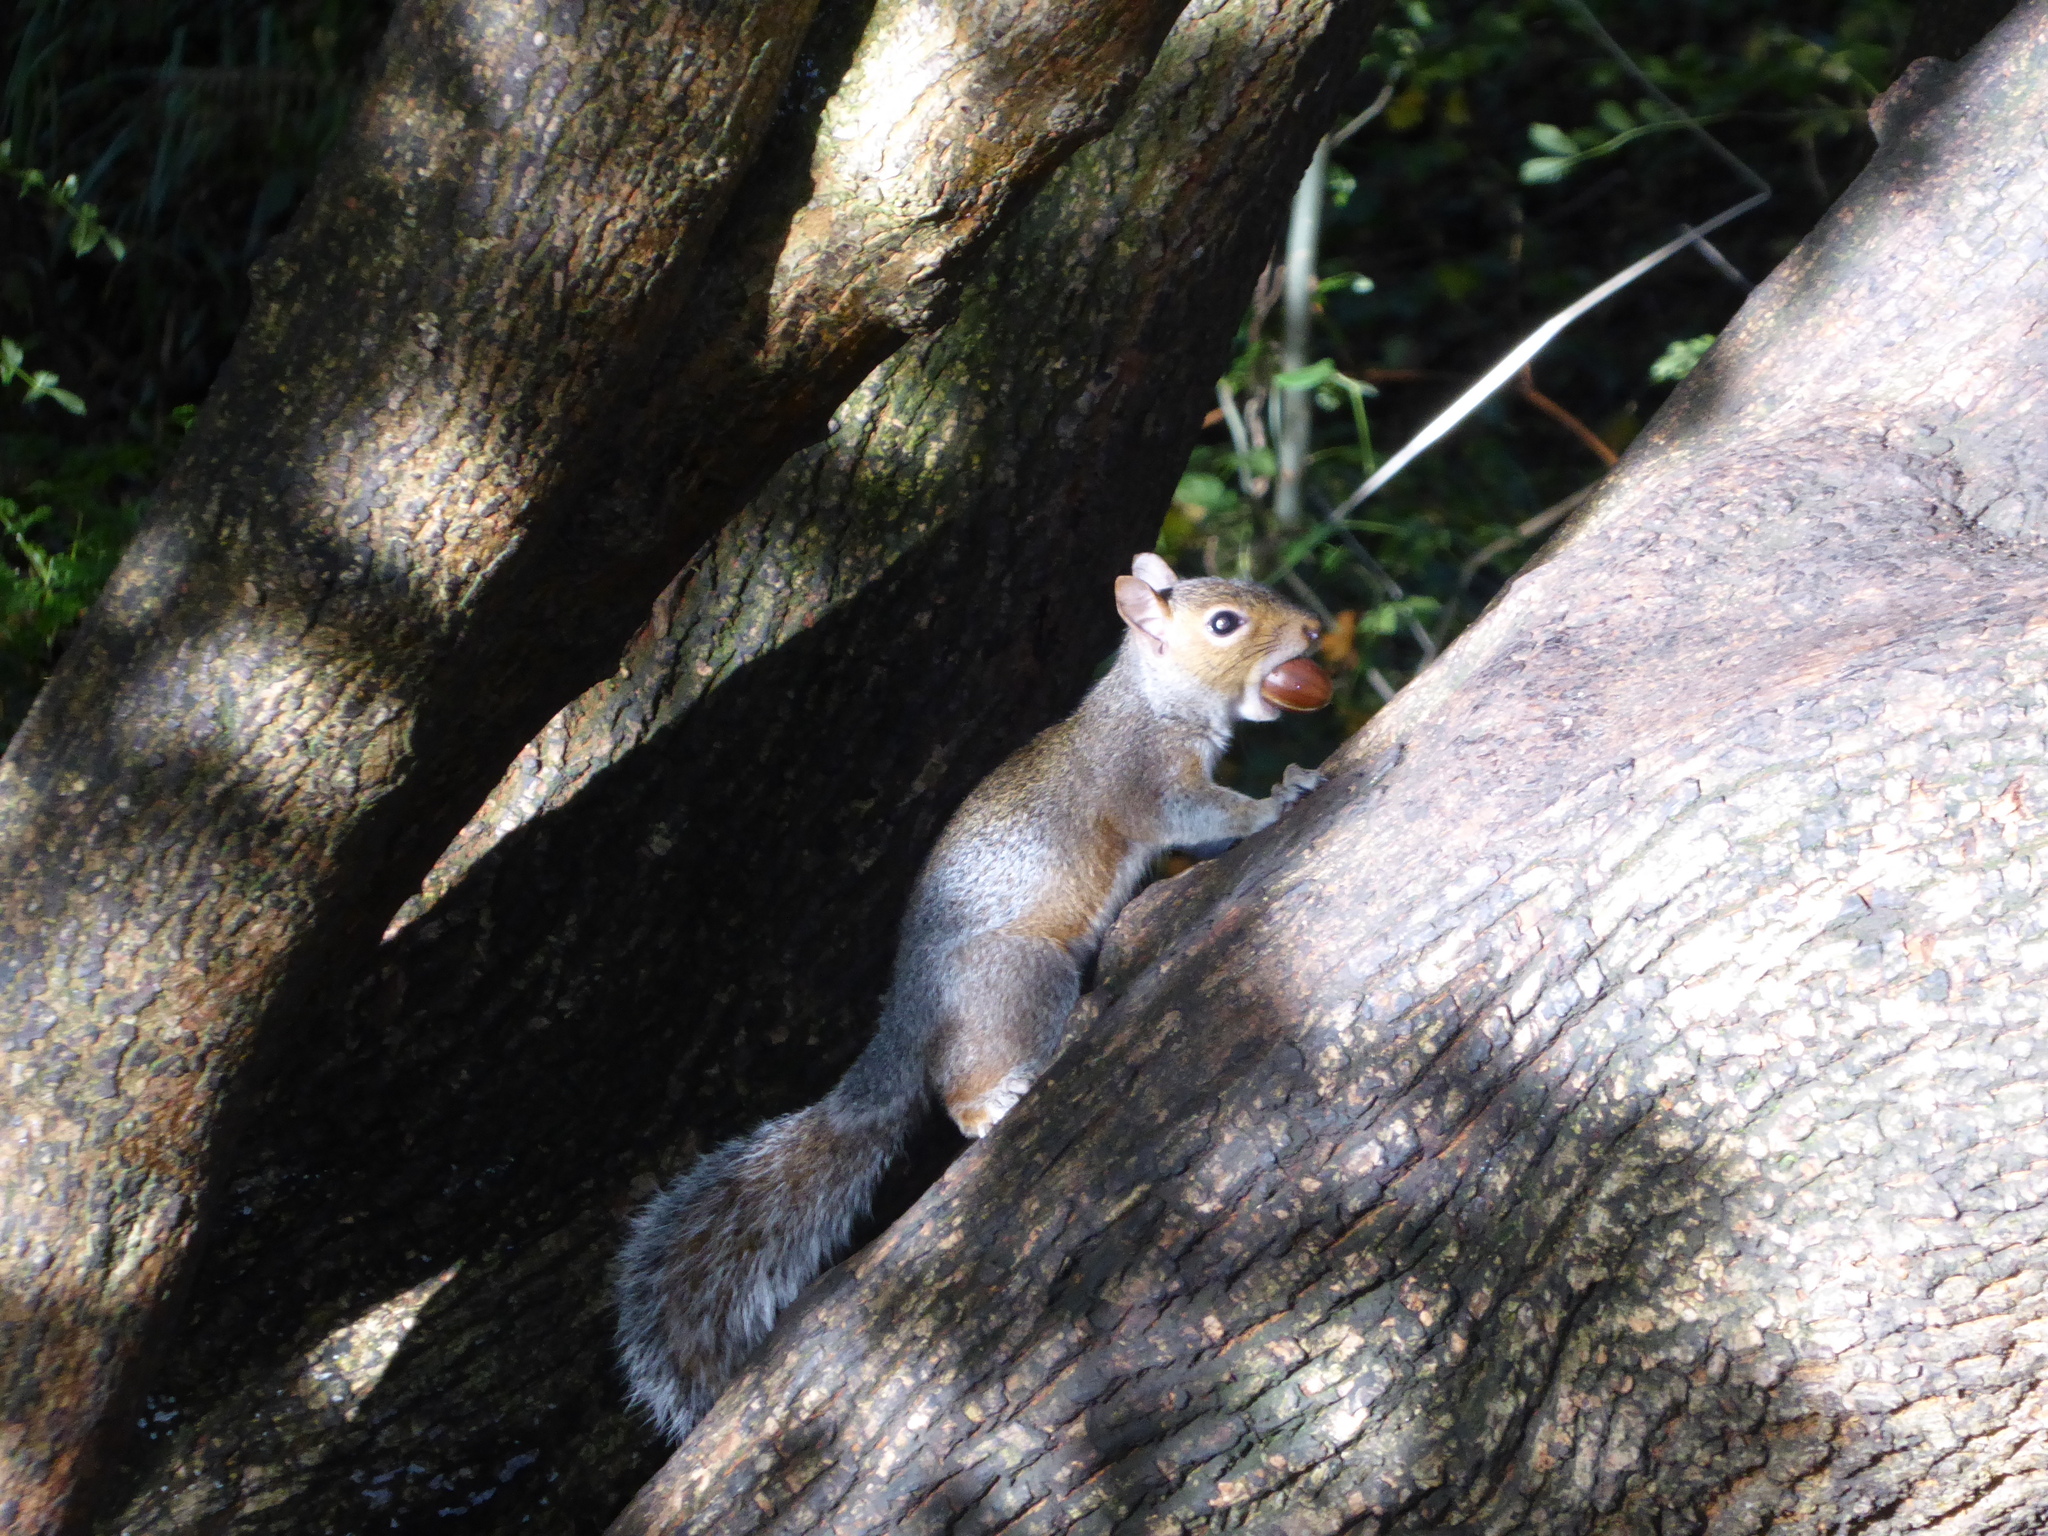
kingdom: Animalia
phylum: Chordata
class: Mammalia
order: Rodentia
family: Sciuridae
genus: Sciurus
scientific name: Sciurus carolinensis
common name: Eastern gray squirrel
